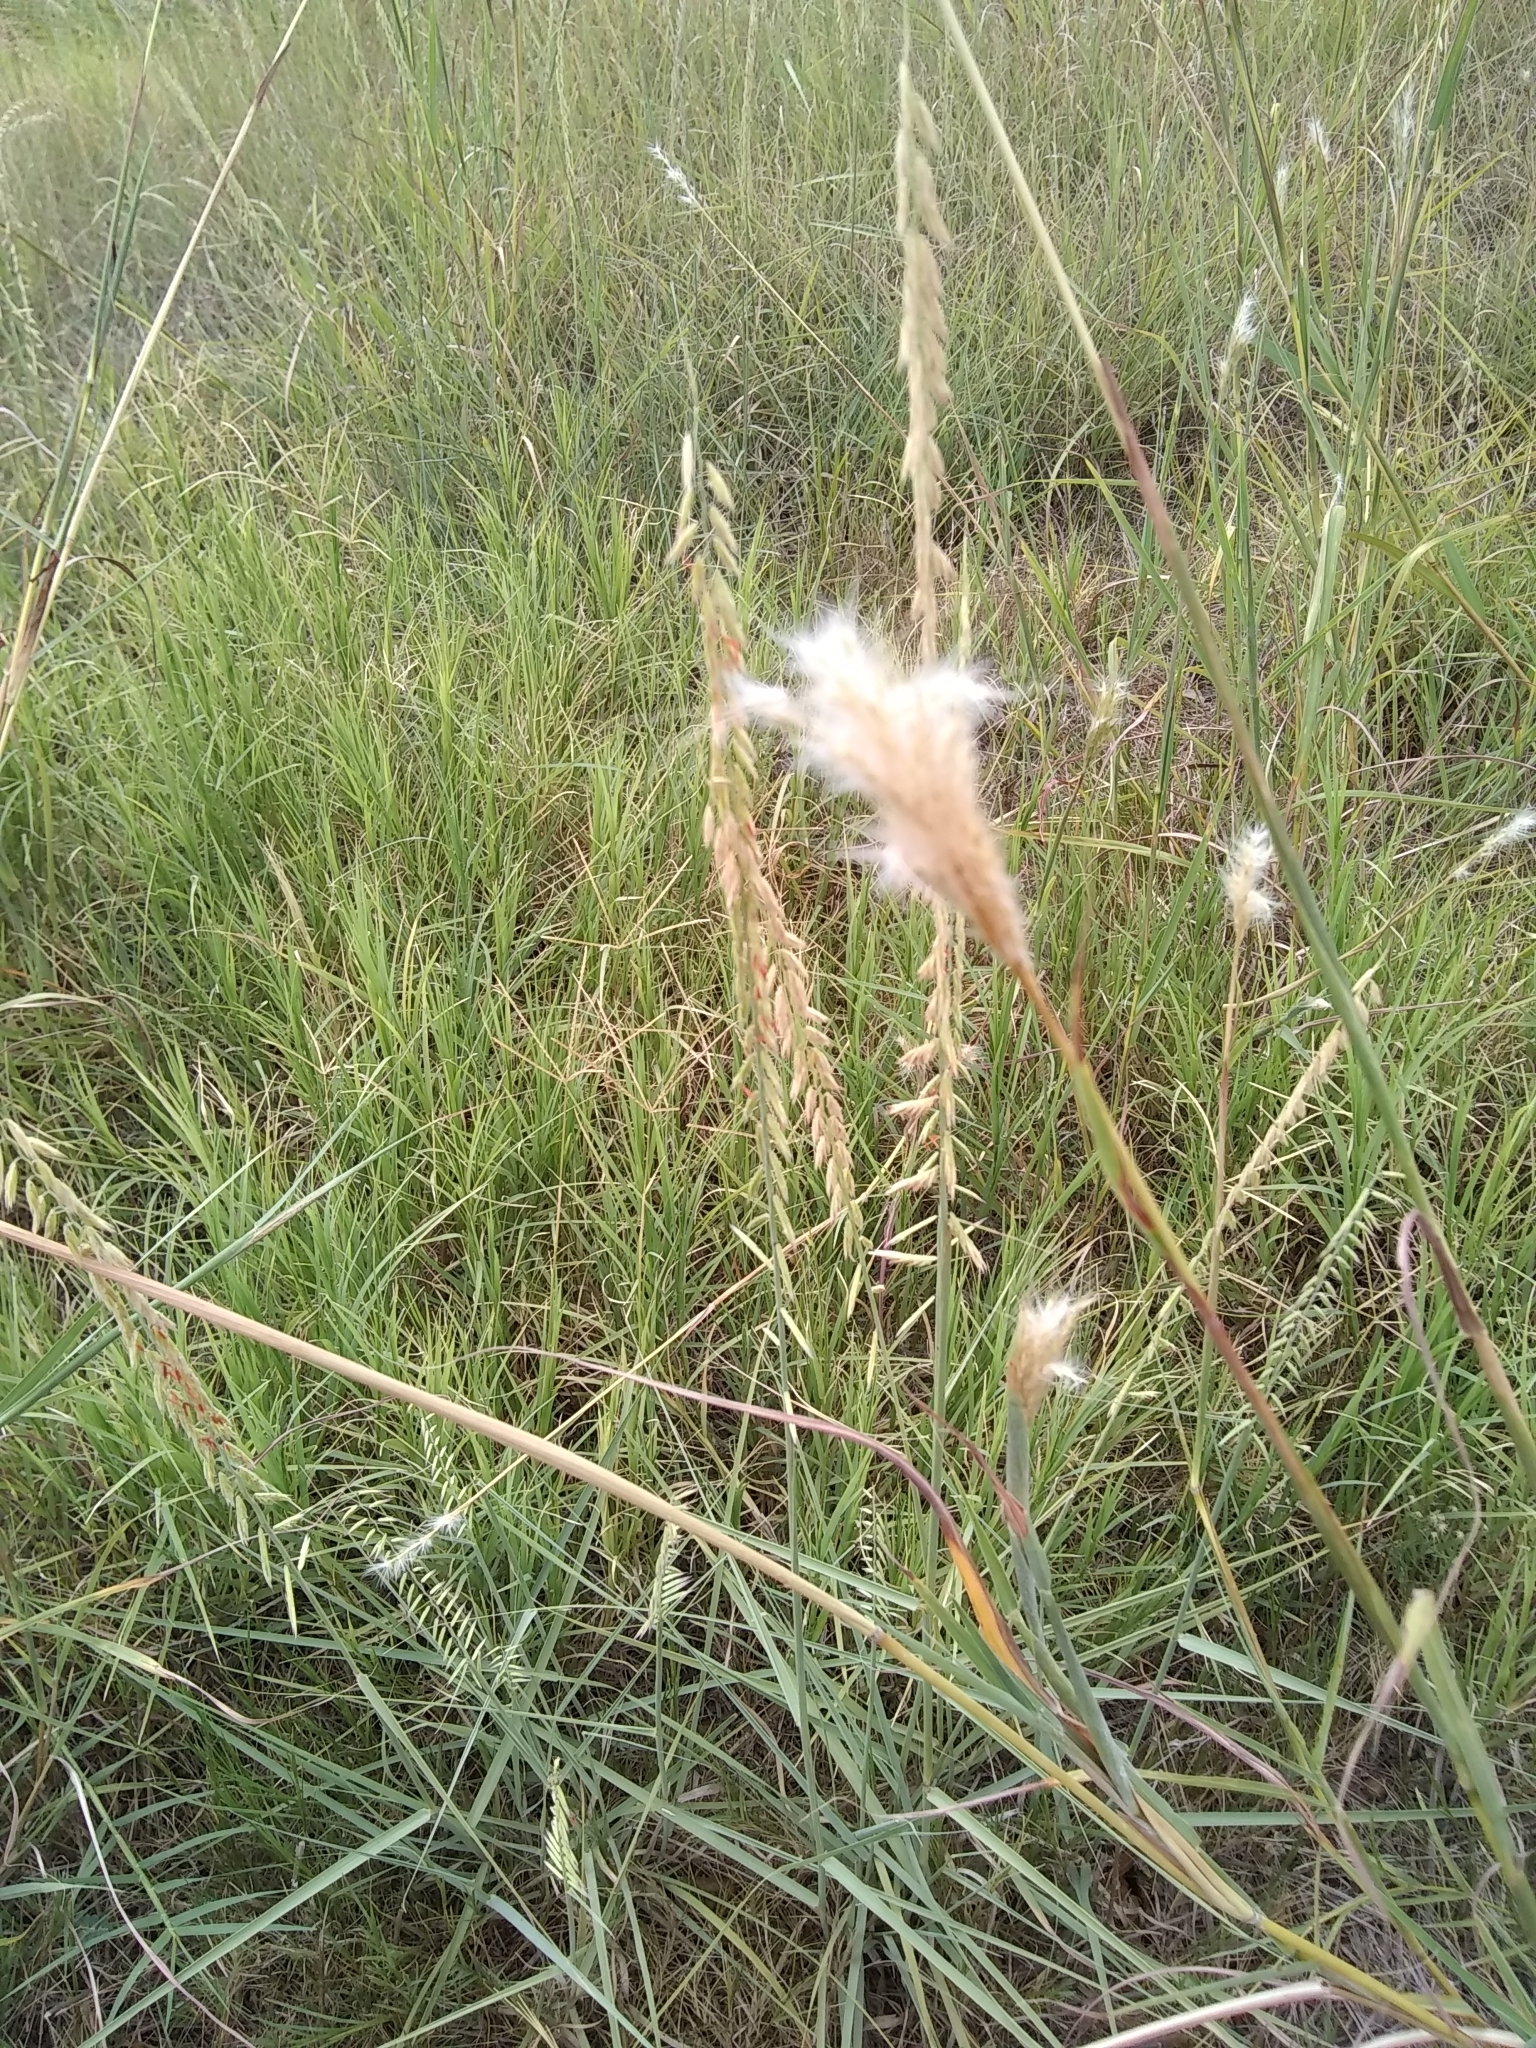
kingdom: Plantae
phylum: Tracheophyta
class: Liliopsida
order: Poales
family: Poaceae
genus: Bothriochloa
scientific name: Bothriochloa torreyana
